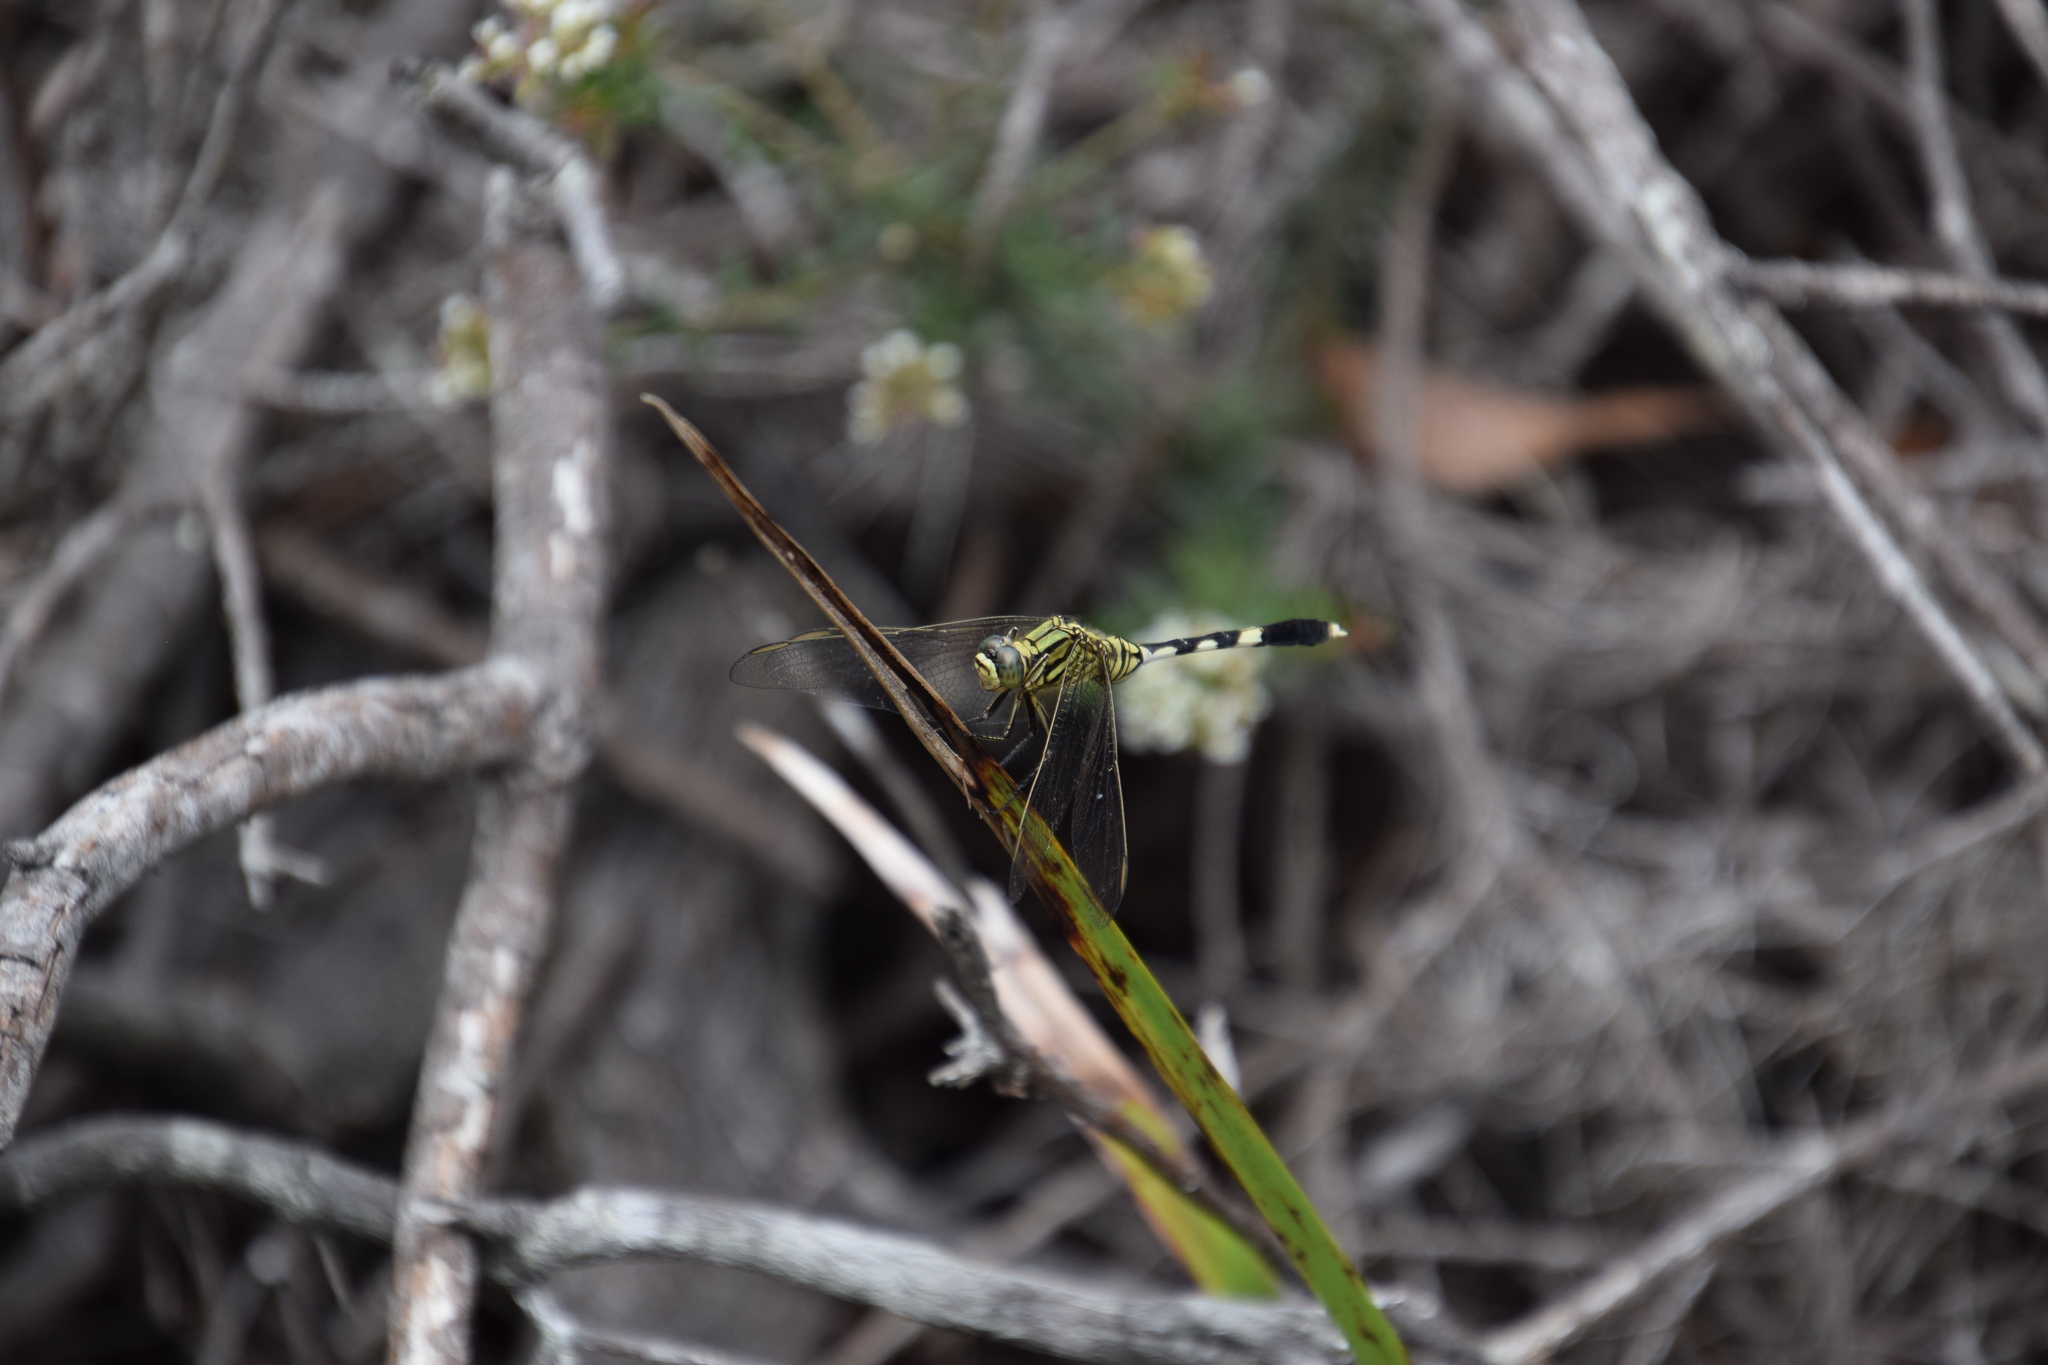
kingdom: Animalia
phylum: Arthropoda
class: Insecta
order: Odonata
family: Libellulidae
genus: Orthetrum
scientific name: Orthetrum sabina
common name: Slender skimmer
